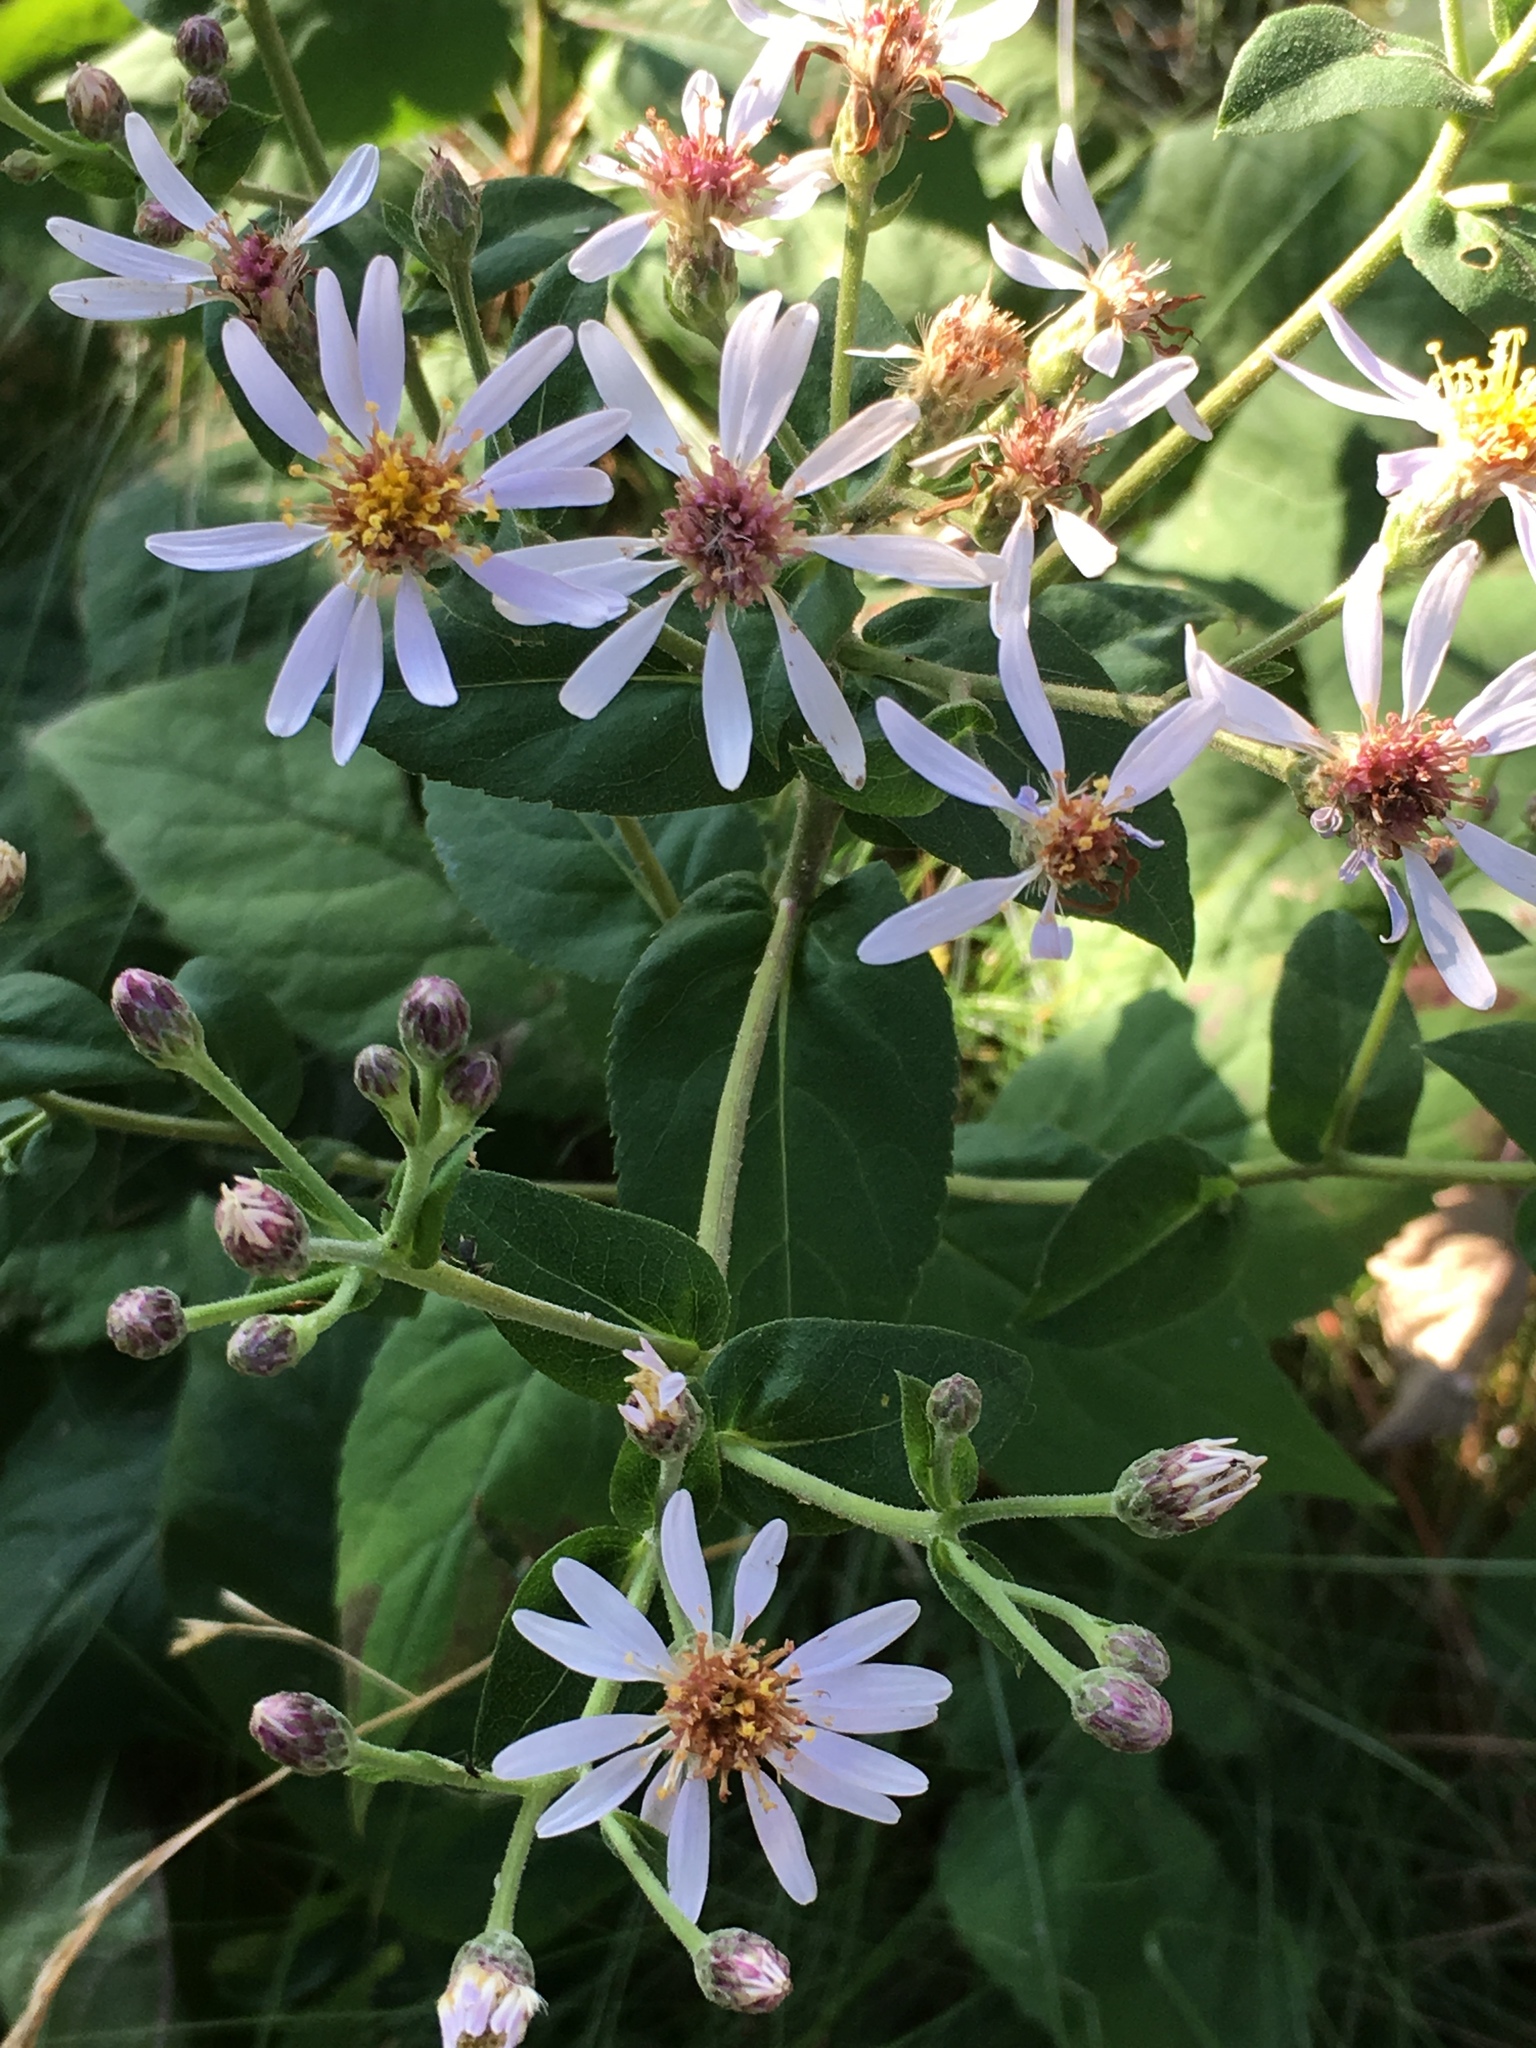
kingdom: Plantae
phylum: Tracheophyta
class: Magnoliopsida
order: Asterales
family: Asteraceae
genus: Eurybia
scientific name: Eurybia macrophylla
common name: Big-leaved aster
